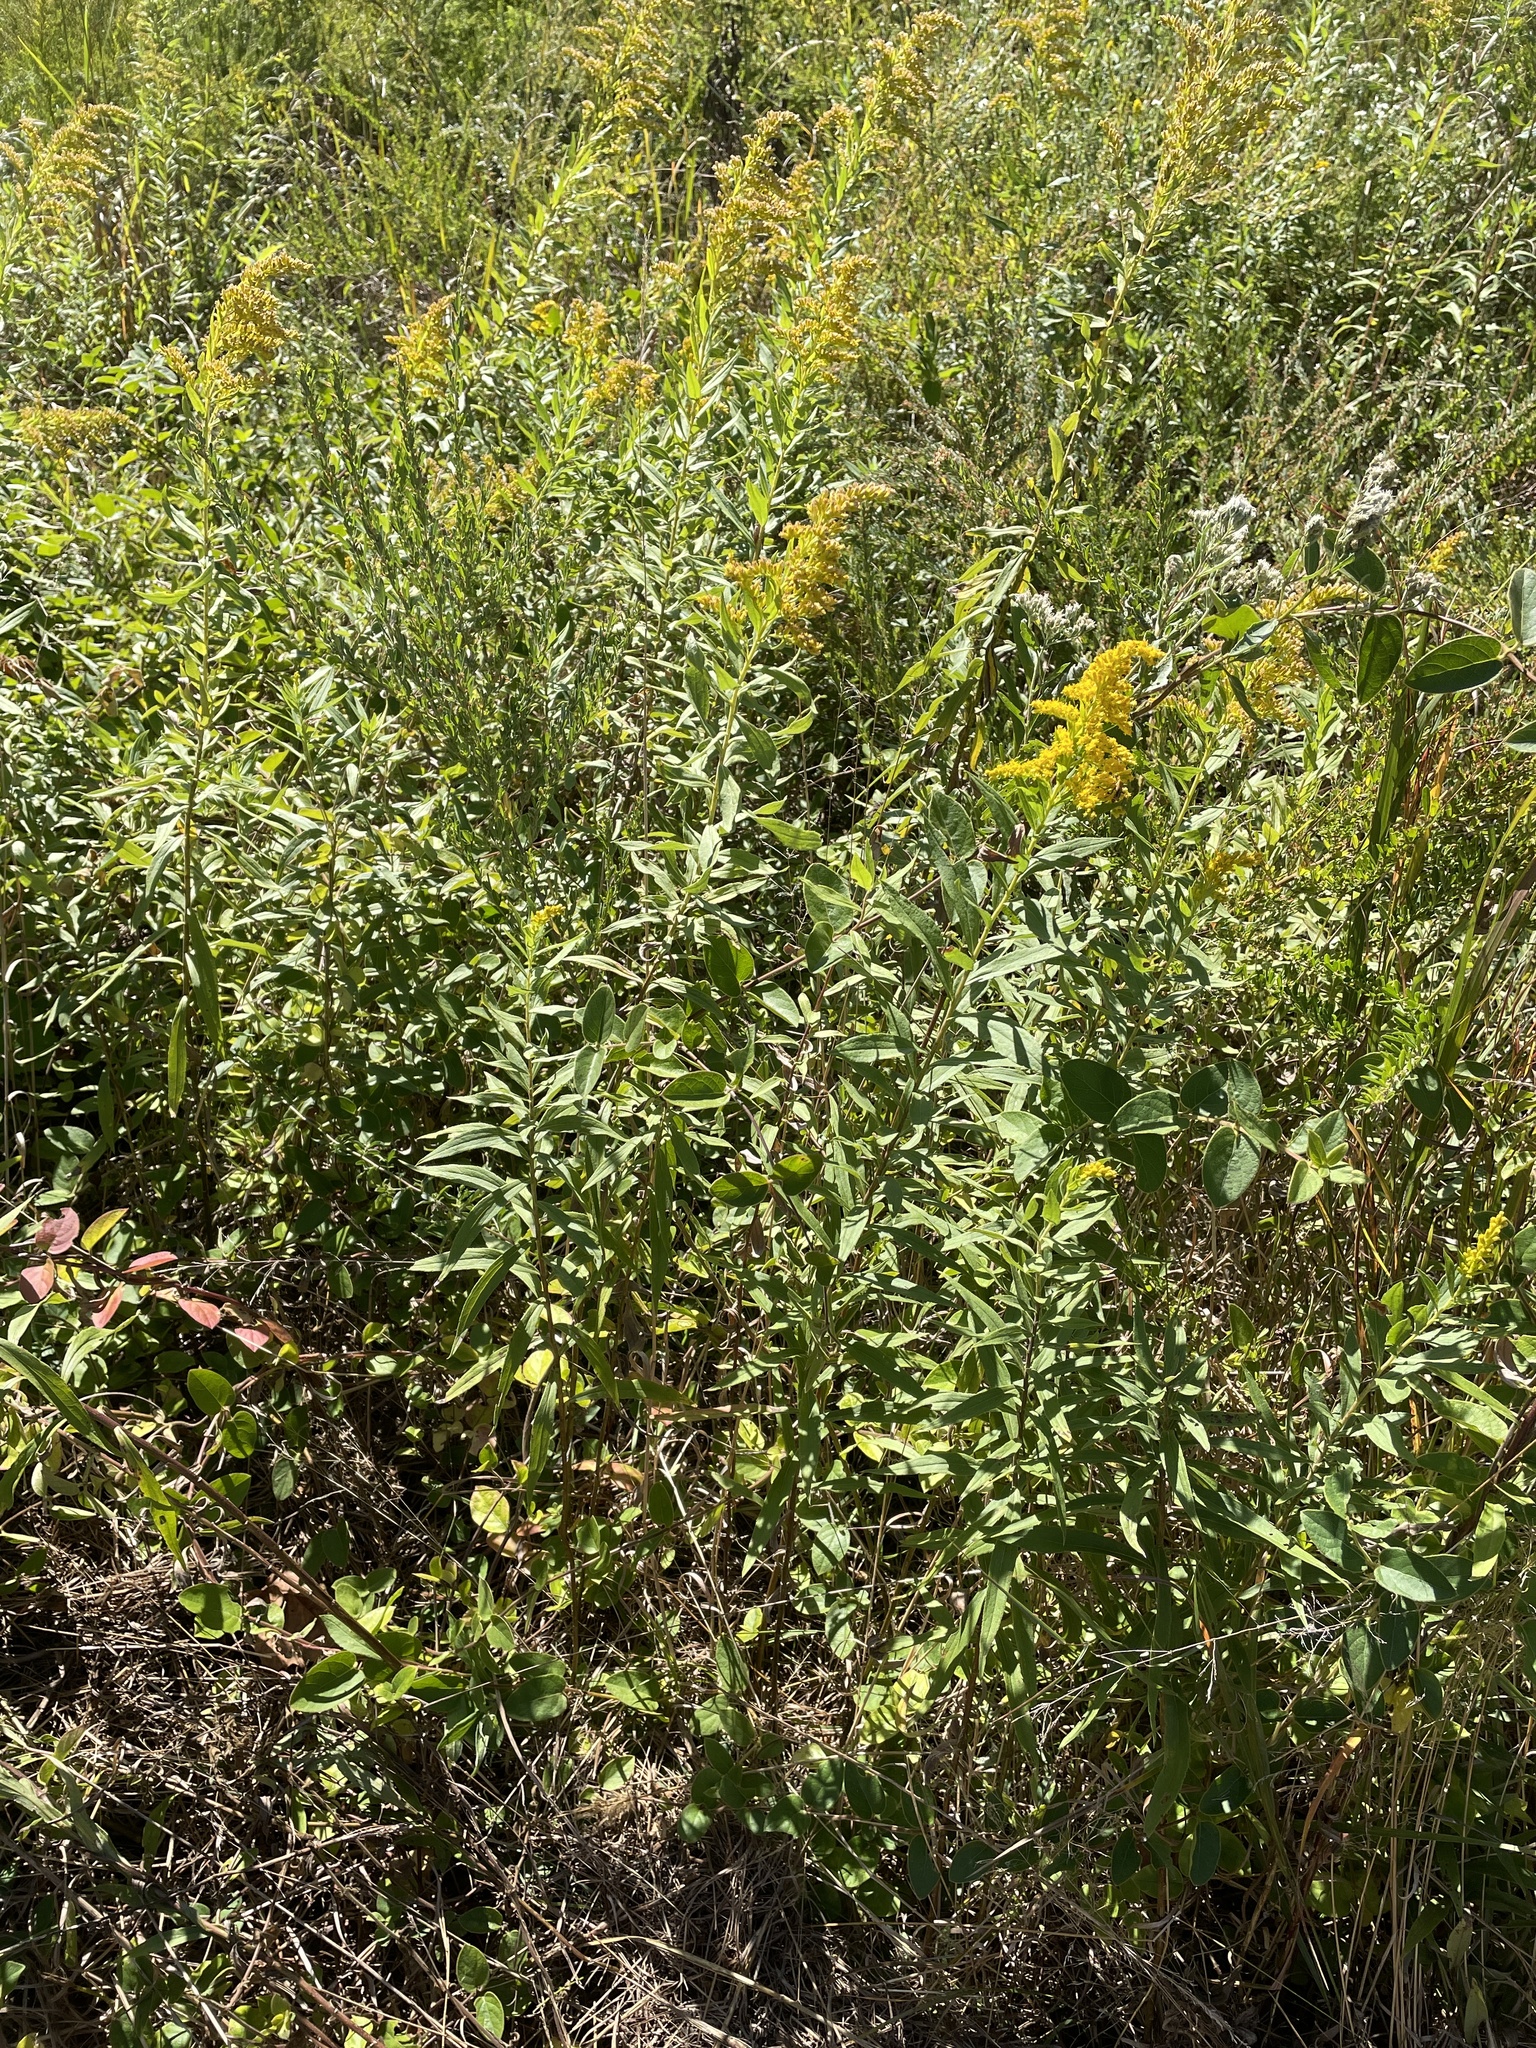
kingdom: Plantae
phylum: Tracheophyta
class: Magnoliopsida
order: Asterales
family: Asteraceae
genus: Solidago
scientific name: Solidago altissima
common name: Late goldenrod
